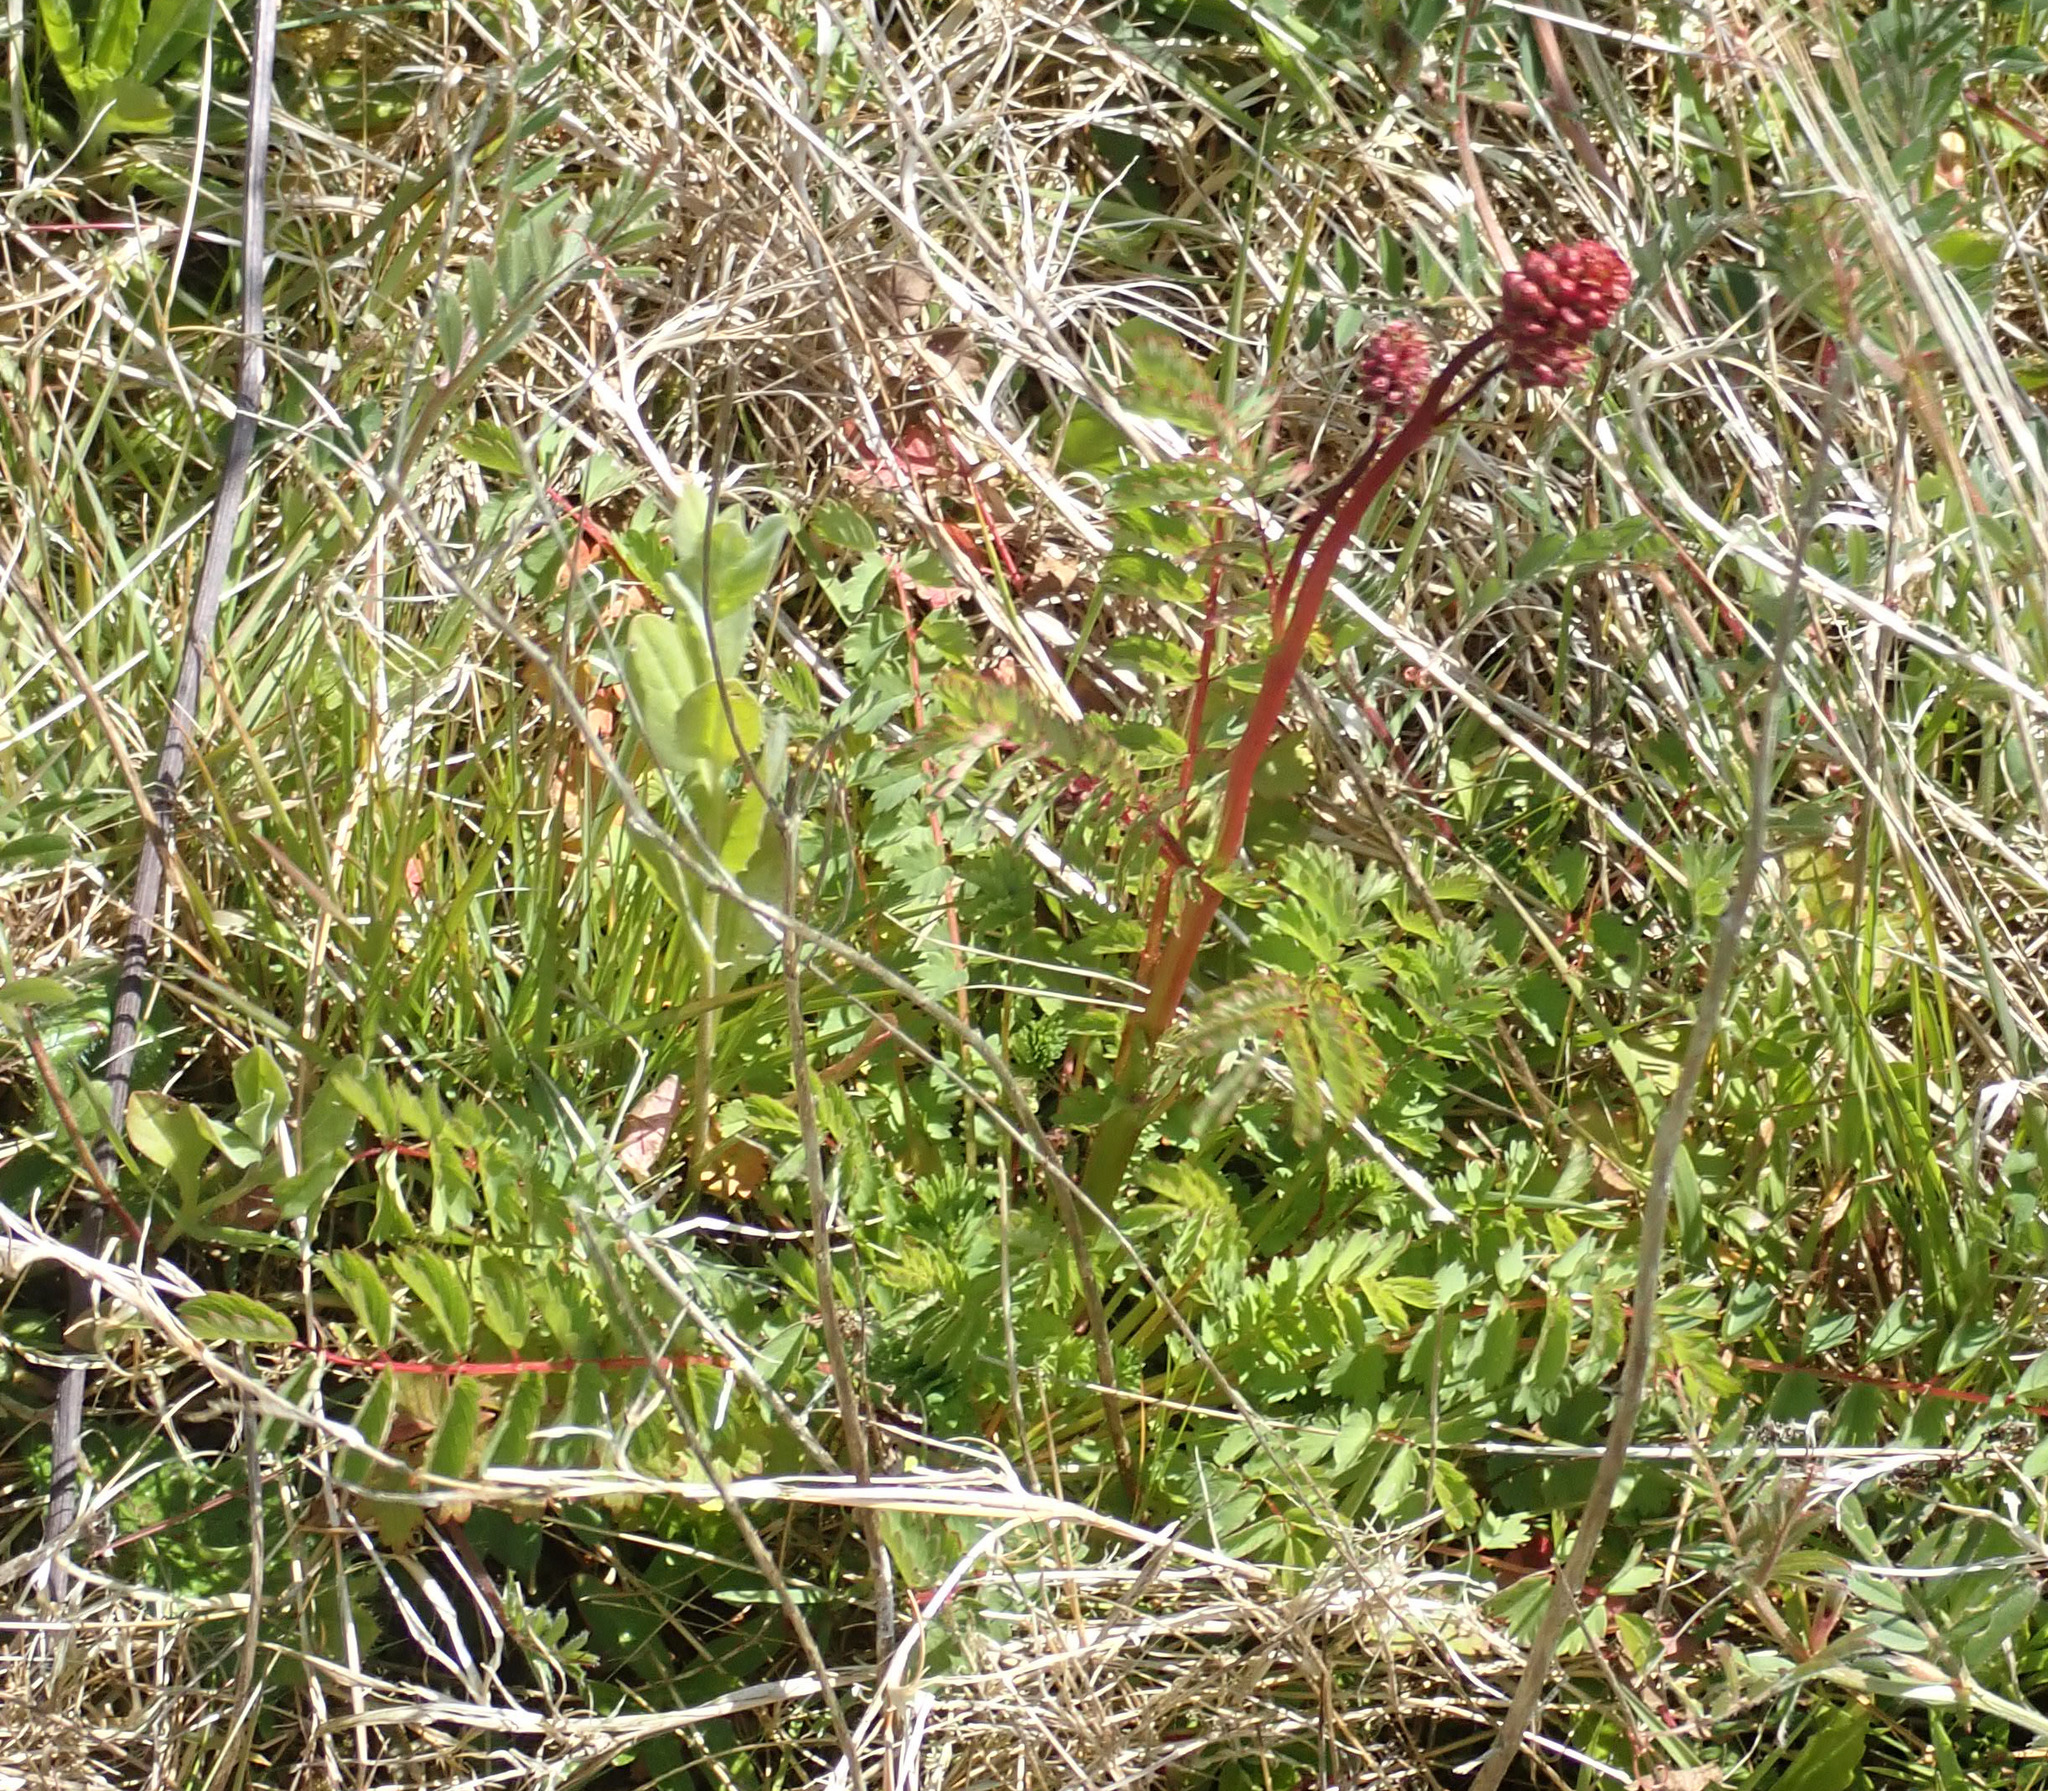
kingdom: Plantae
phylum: Tracheophyta
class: Magnoliopsida
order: Rosales
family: Rosaceae
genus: Poterium
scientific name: Poterium sanguisorba
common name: Salad burnet
